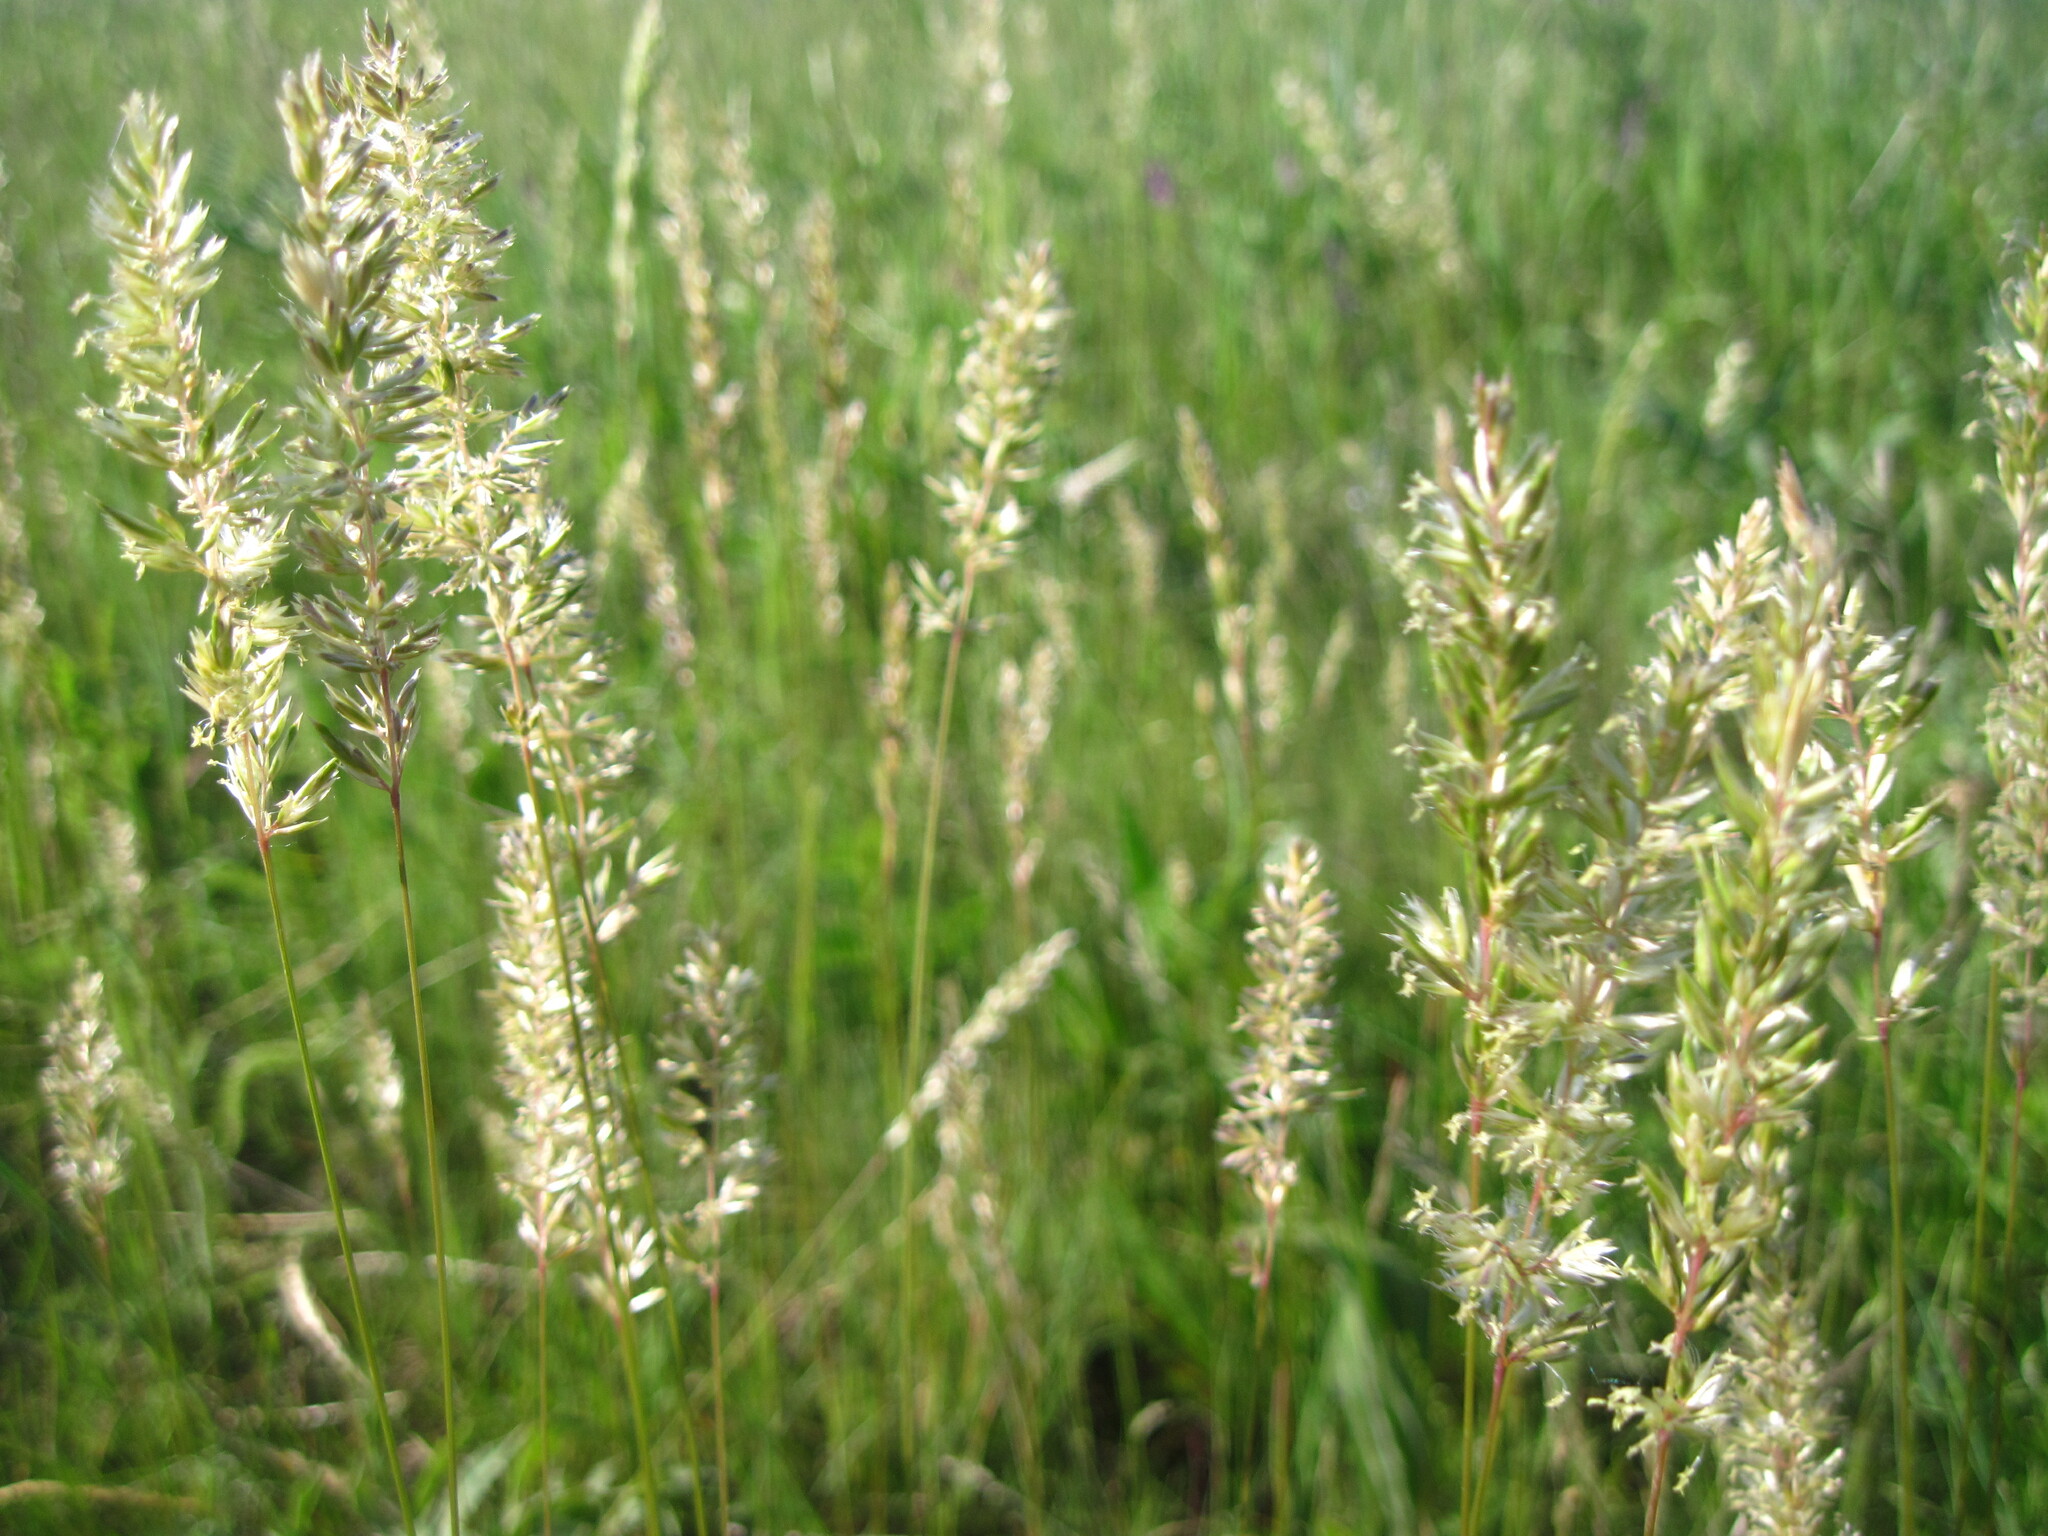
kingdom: Plantae
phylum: Tracheophyta
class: Liliopsida
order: Poales
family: Poaceae
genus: Koeleria
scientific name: Koeleria macrantha
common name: Crested hair-grass
